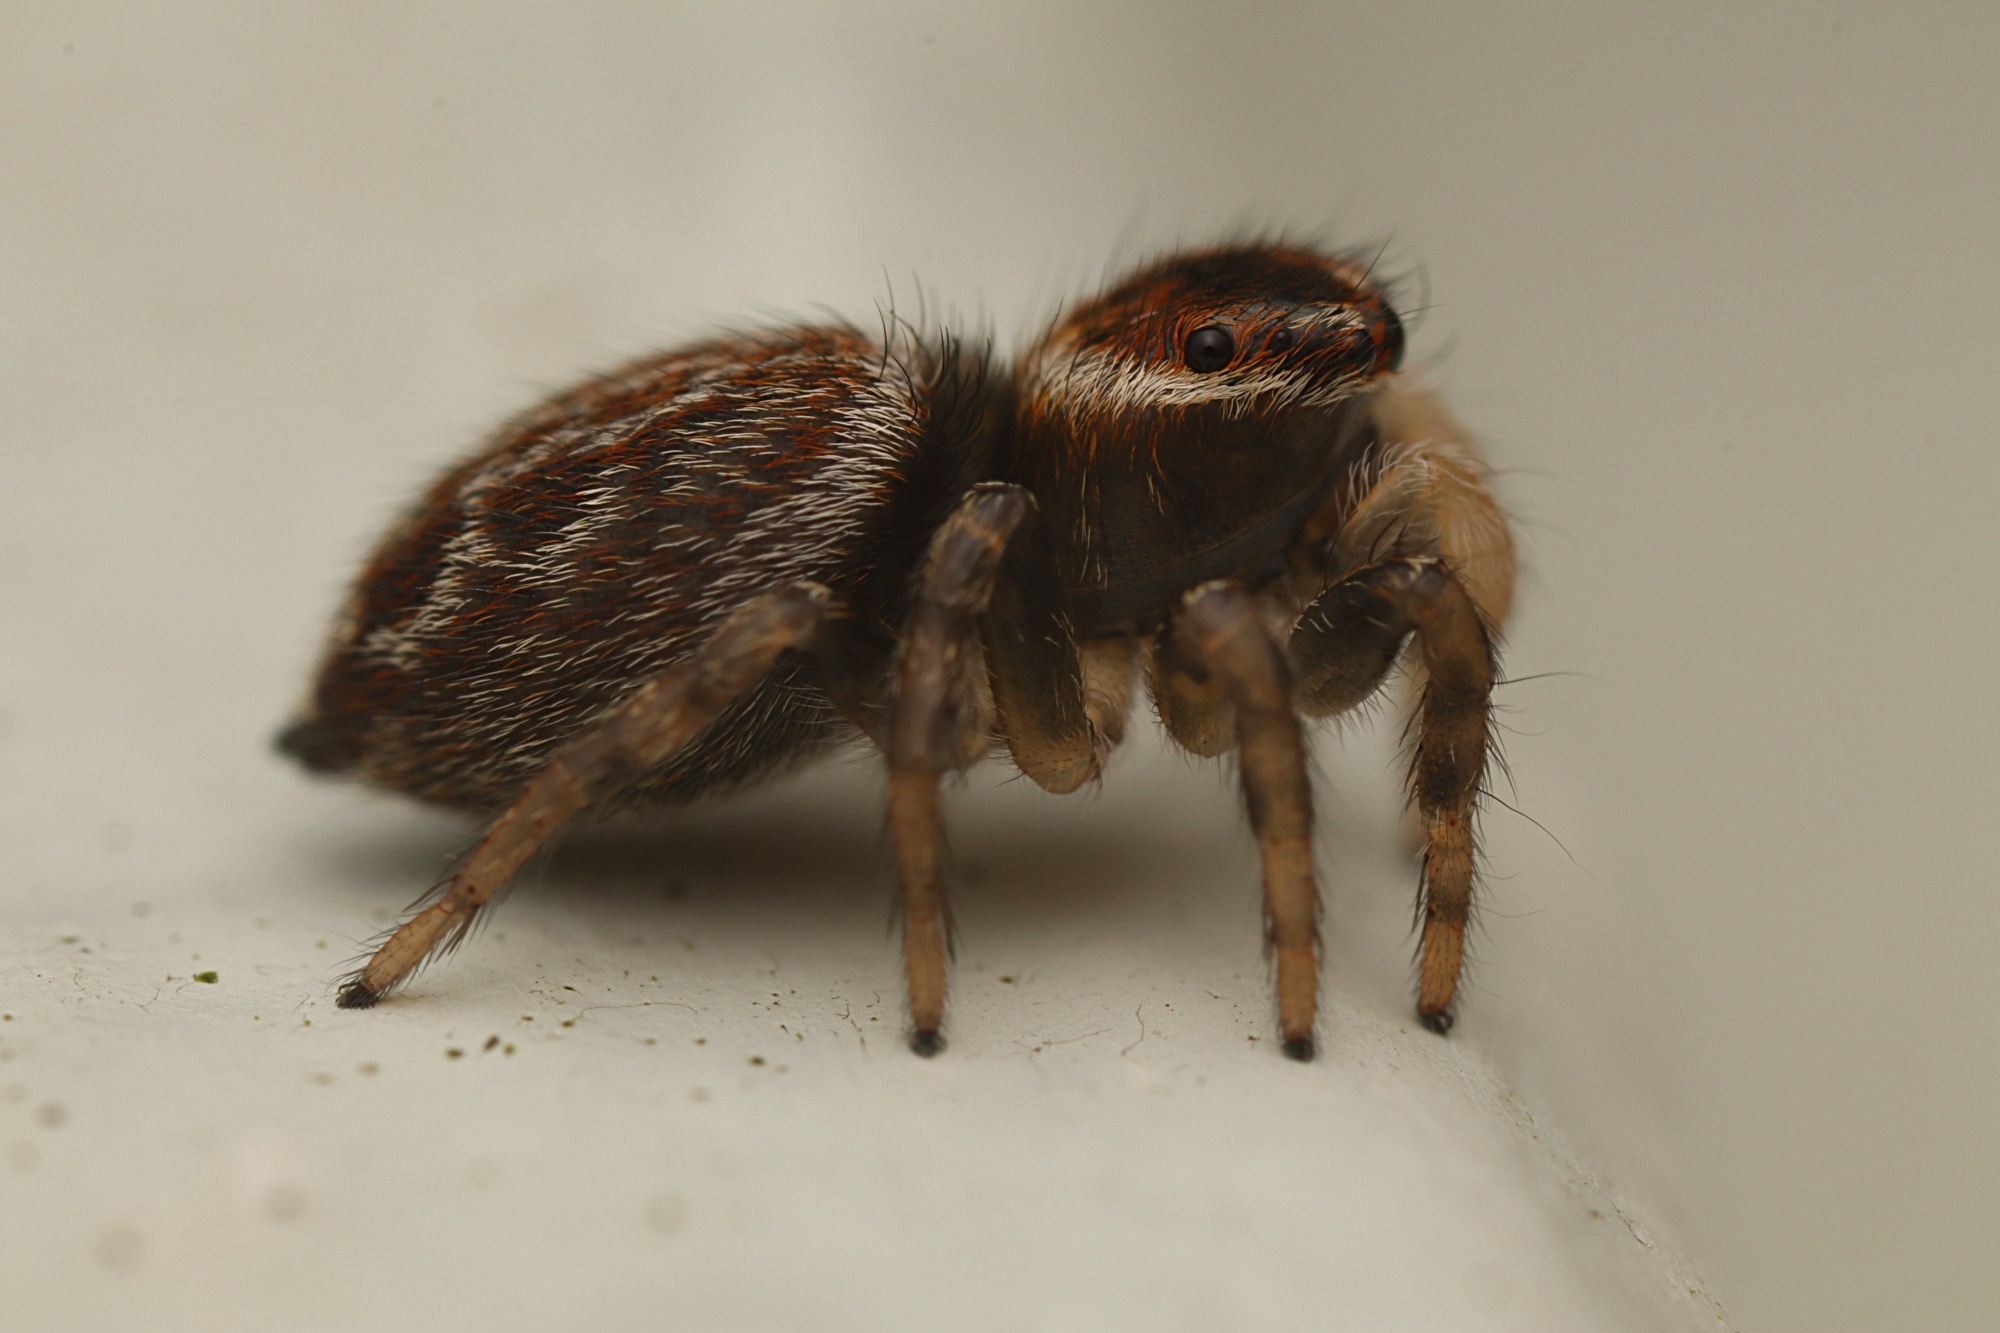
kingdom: Animalia
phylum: Arthropoda
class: Arachnida
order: Araneae
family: Salticidae
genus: Maratus
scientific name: Maratus griseus
